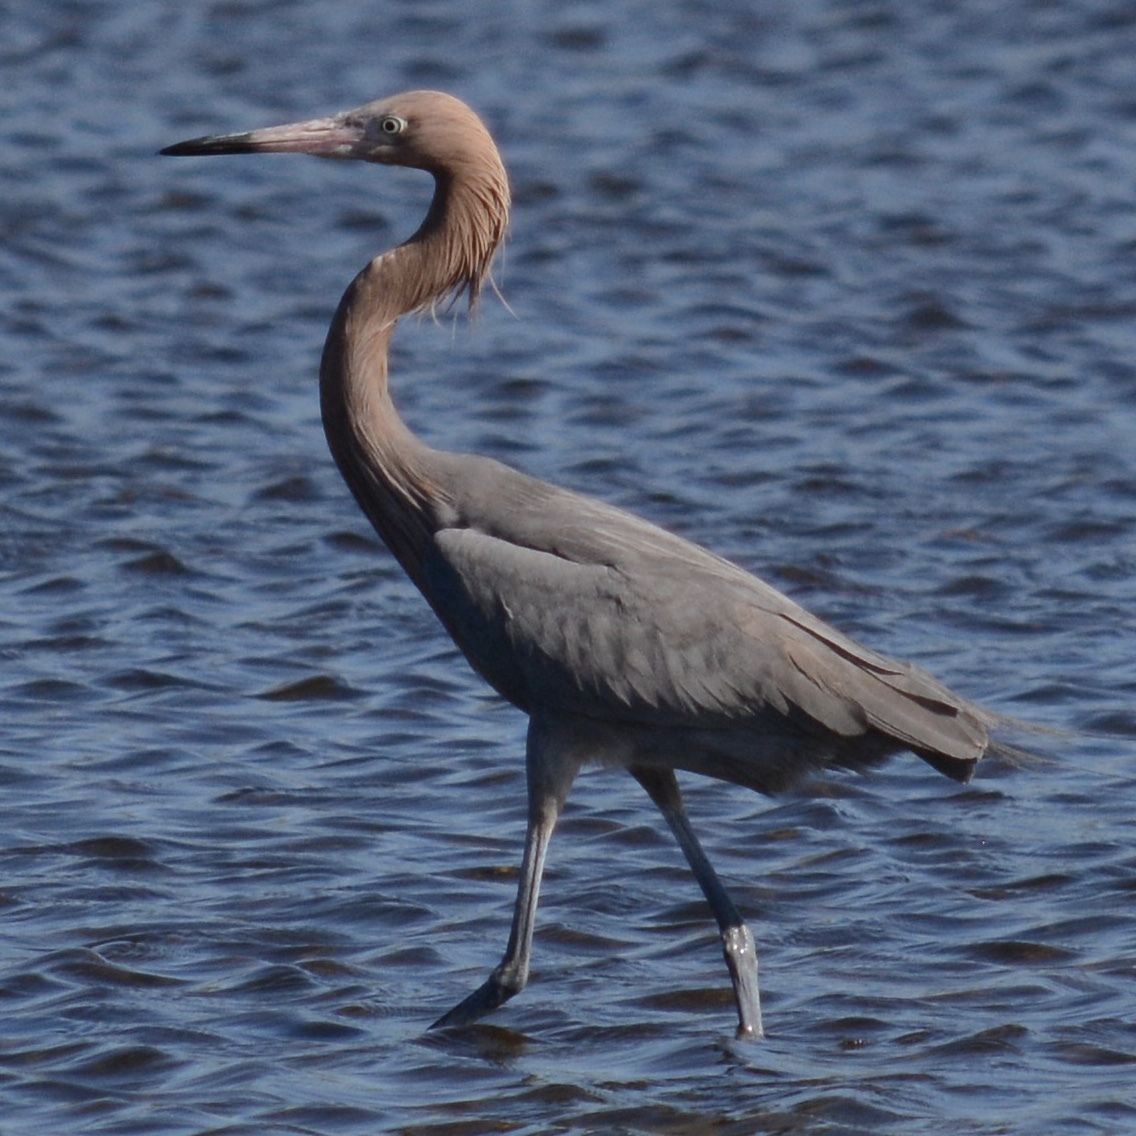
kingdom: Animalia
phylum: Chordata
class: Aves
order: Pelecaniformes
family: Ardeidae
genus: Egretta
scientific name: Egretta rufescens
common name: Reddish egret
